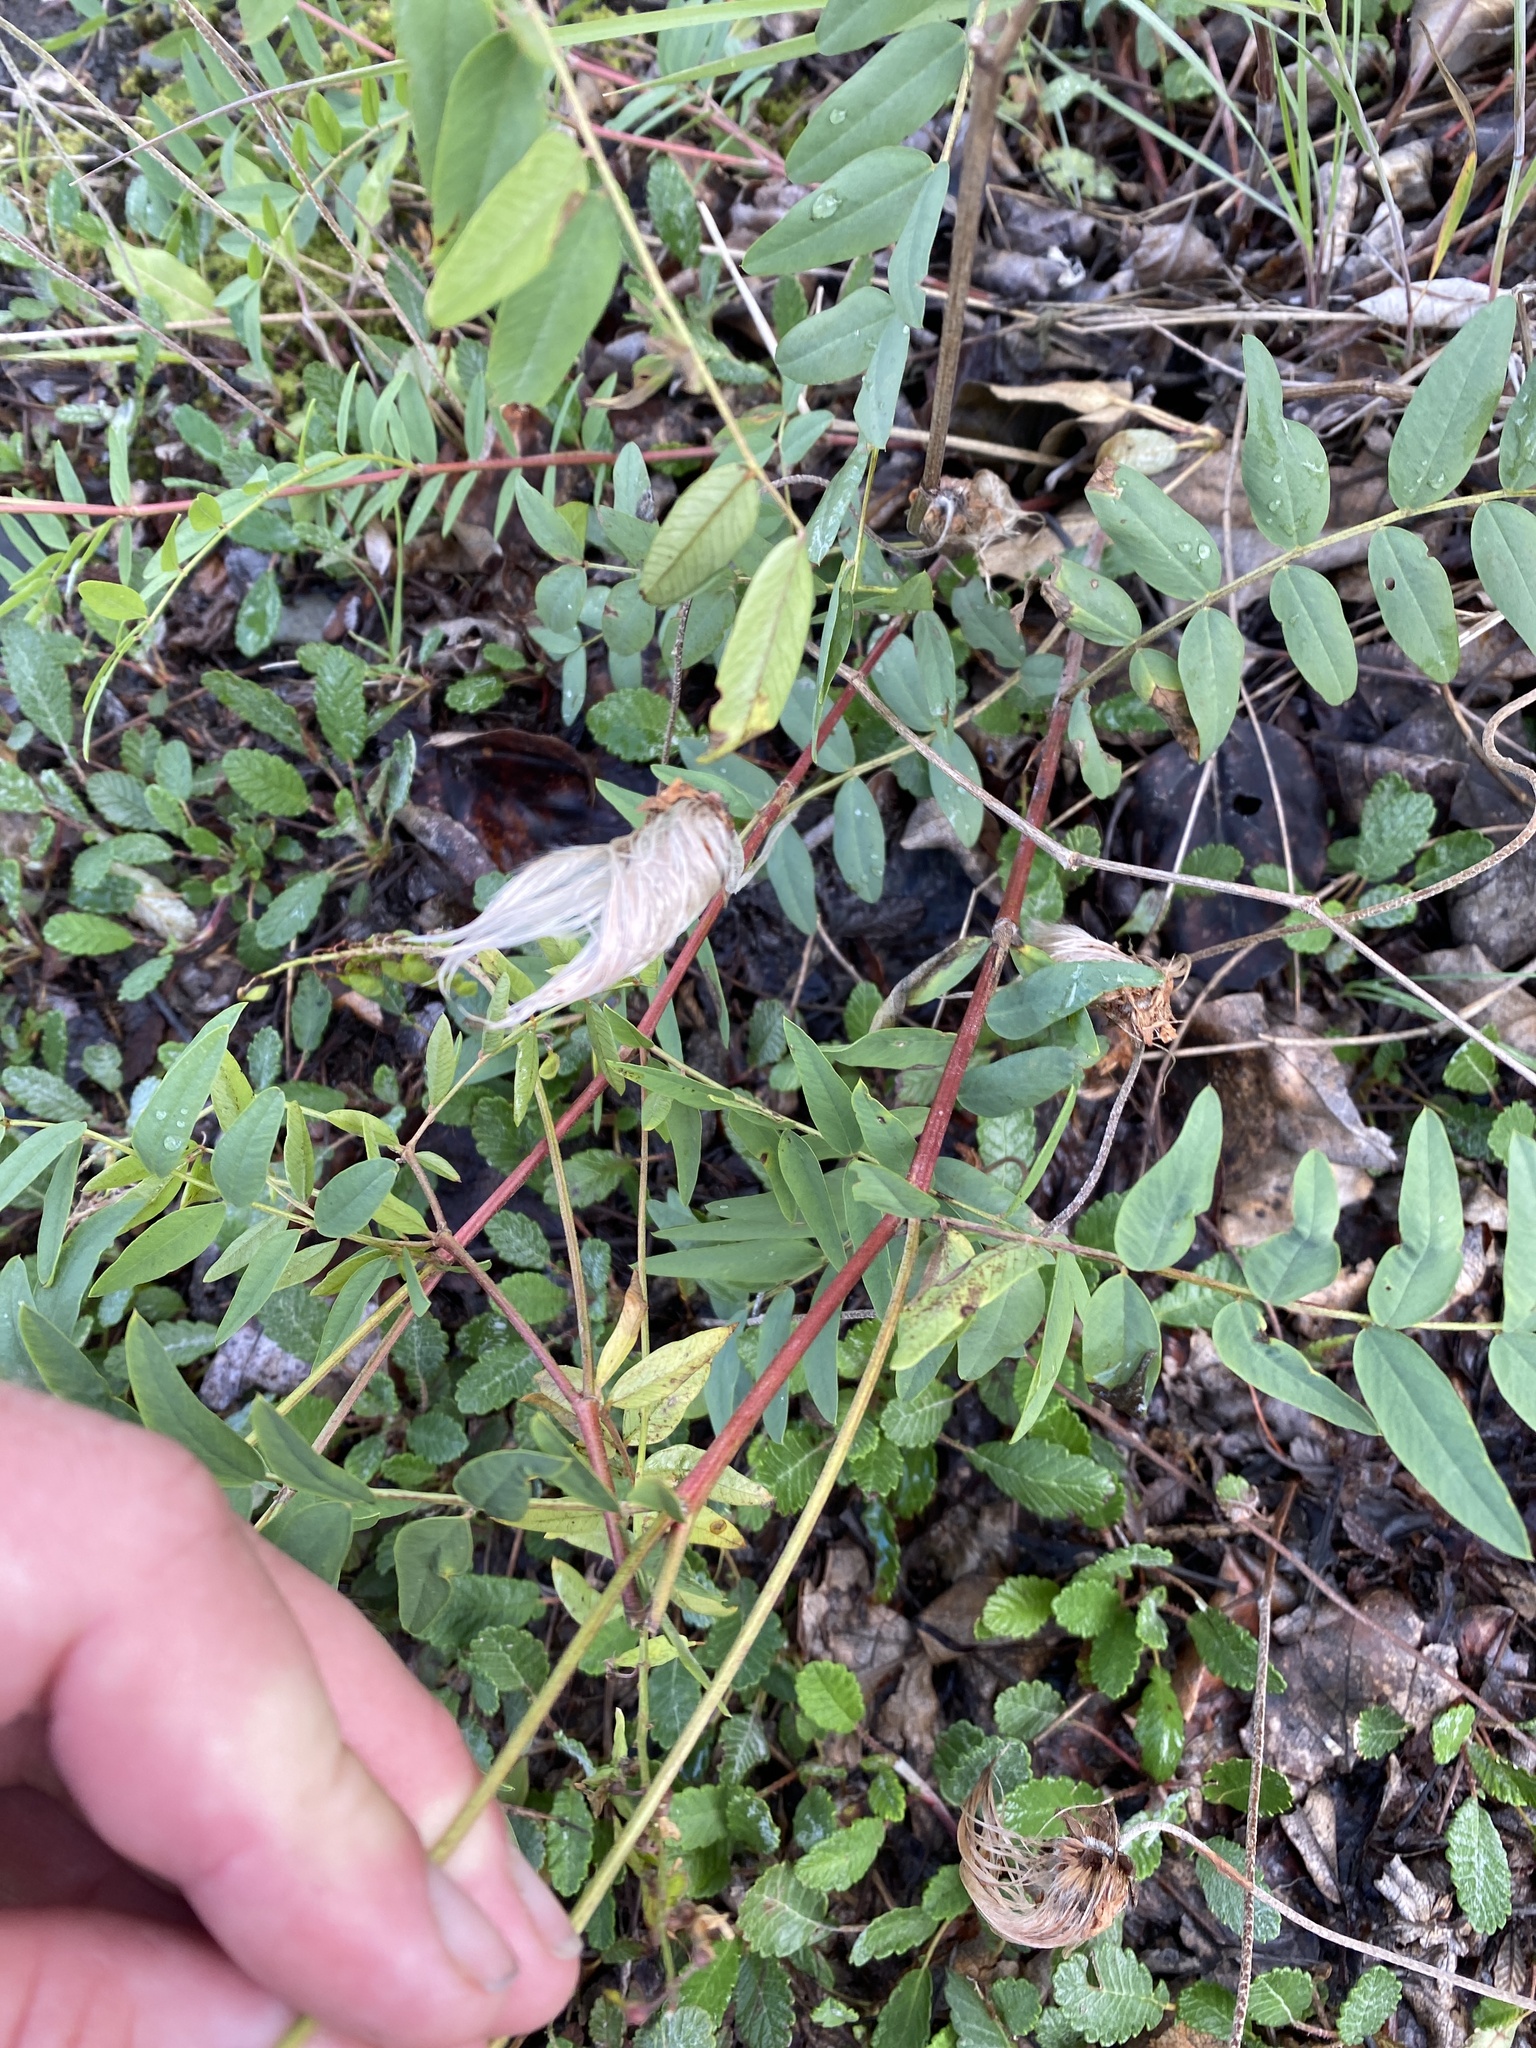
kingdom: Plantae
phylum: Tracheophyta
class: Magnoliopsida
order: Fabales
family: Fabaceae
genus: Hedysarum
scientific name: Hedysarum alpinum
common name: Alpine sweet-vetch
